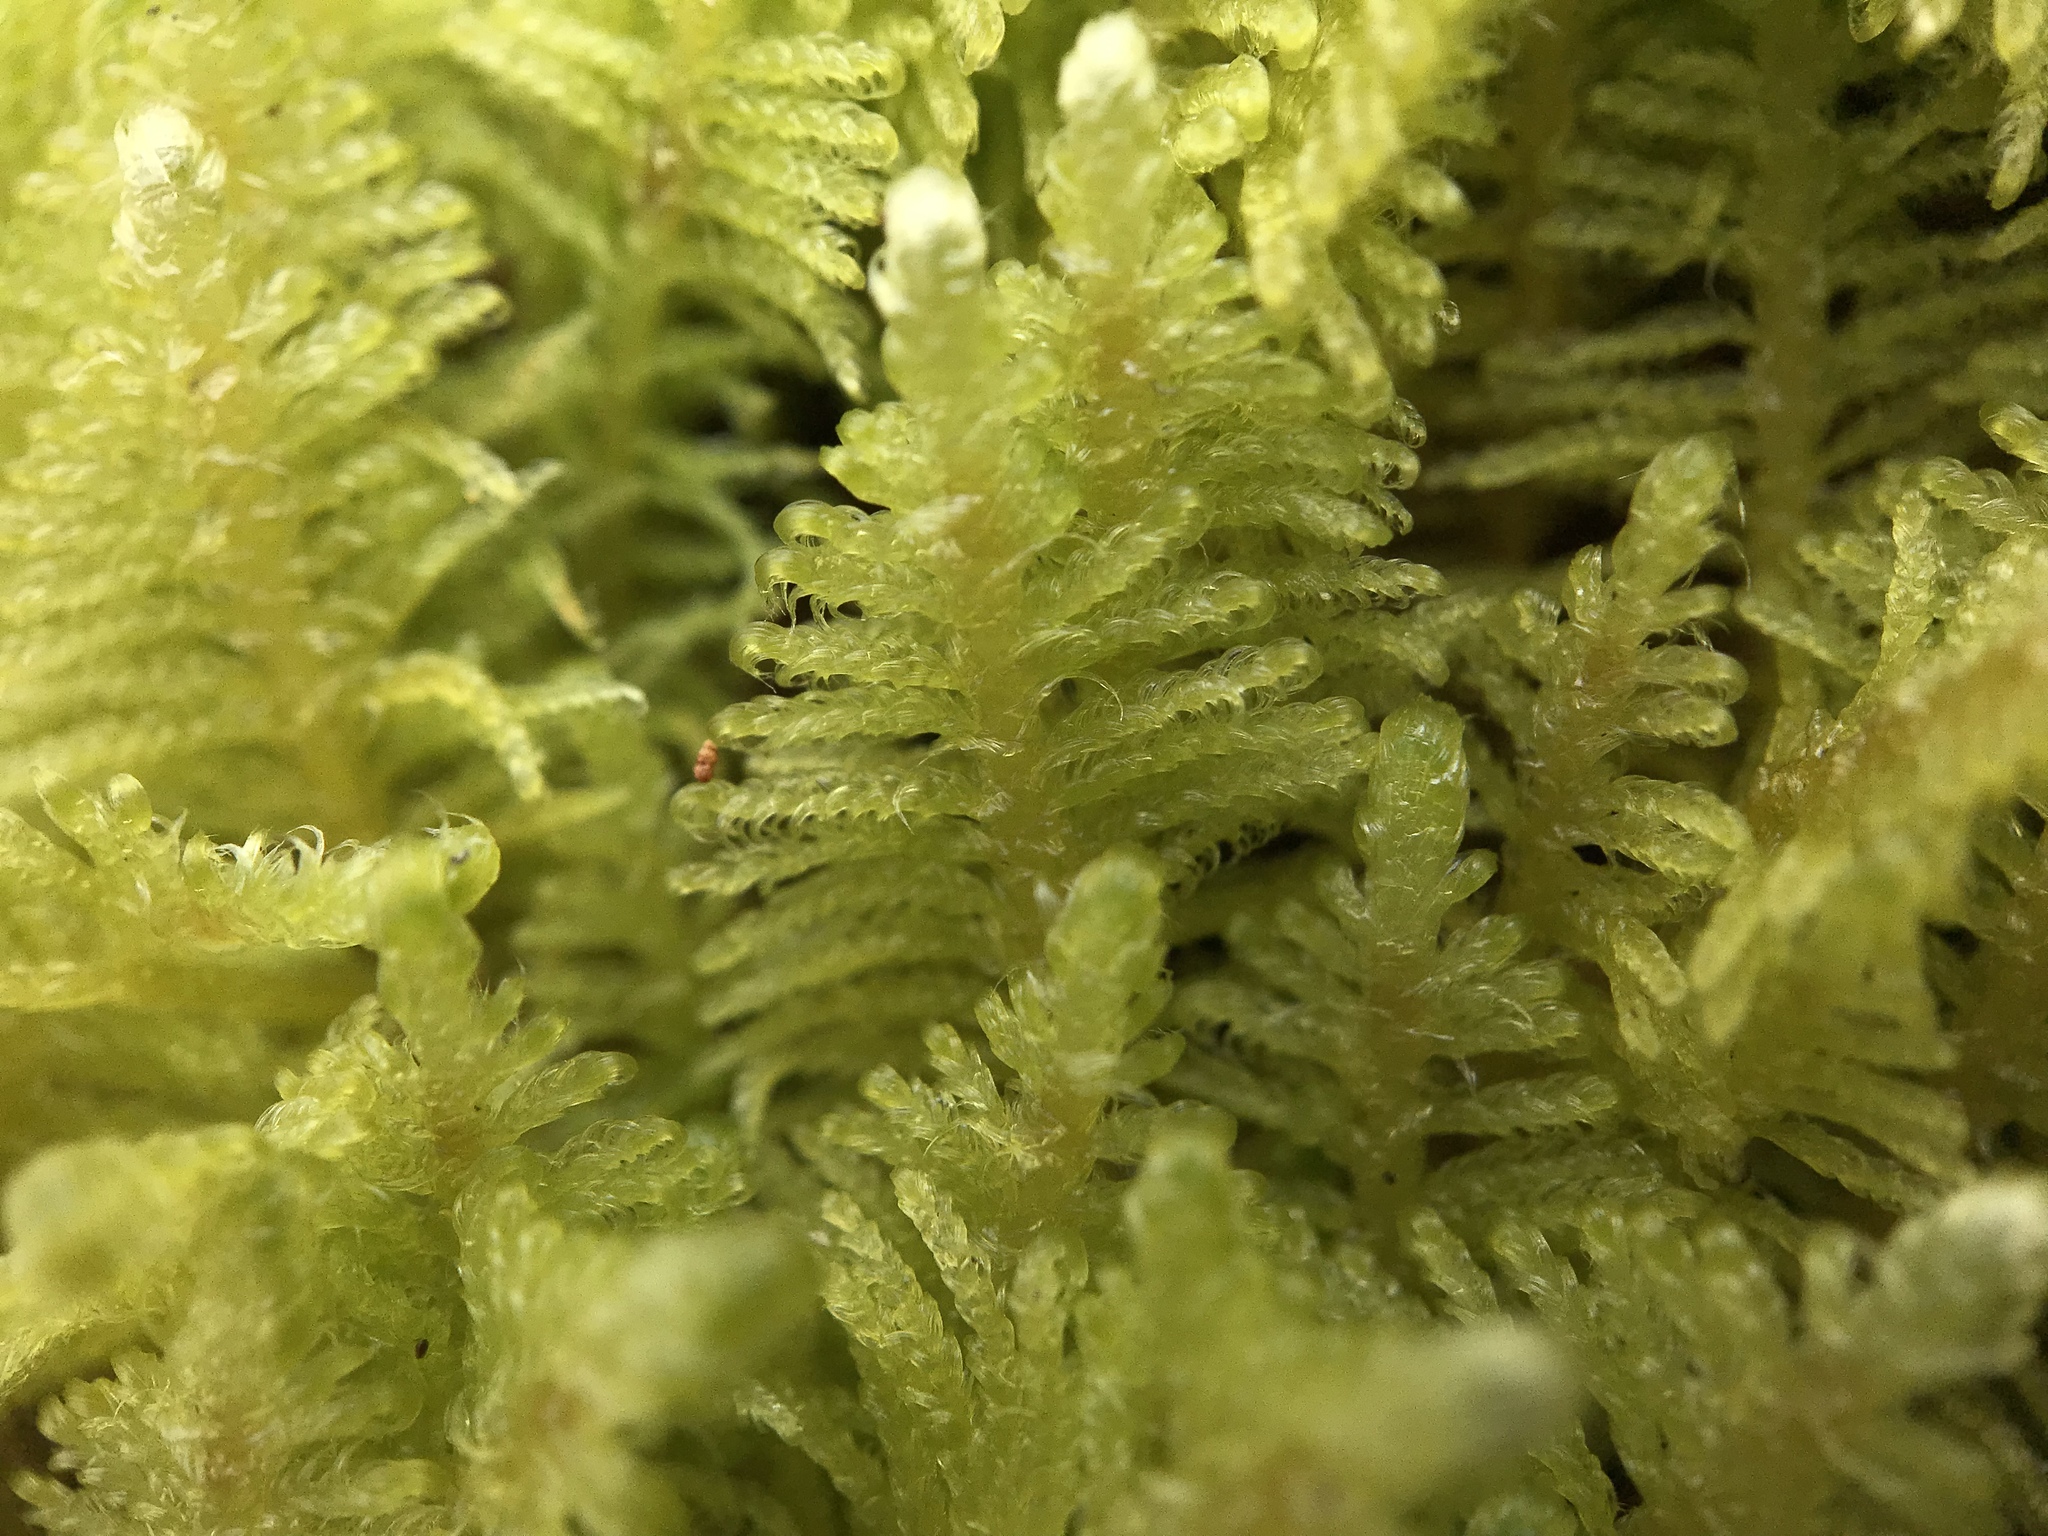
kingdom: Plantae
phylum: Bryophyta
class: Bryopsida
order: Hypnales
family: Pylaisiaceae
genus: Ptilium
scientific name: Ptilium crista-castrensis
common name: Knight's plume moss
